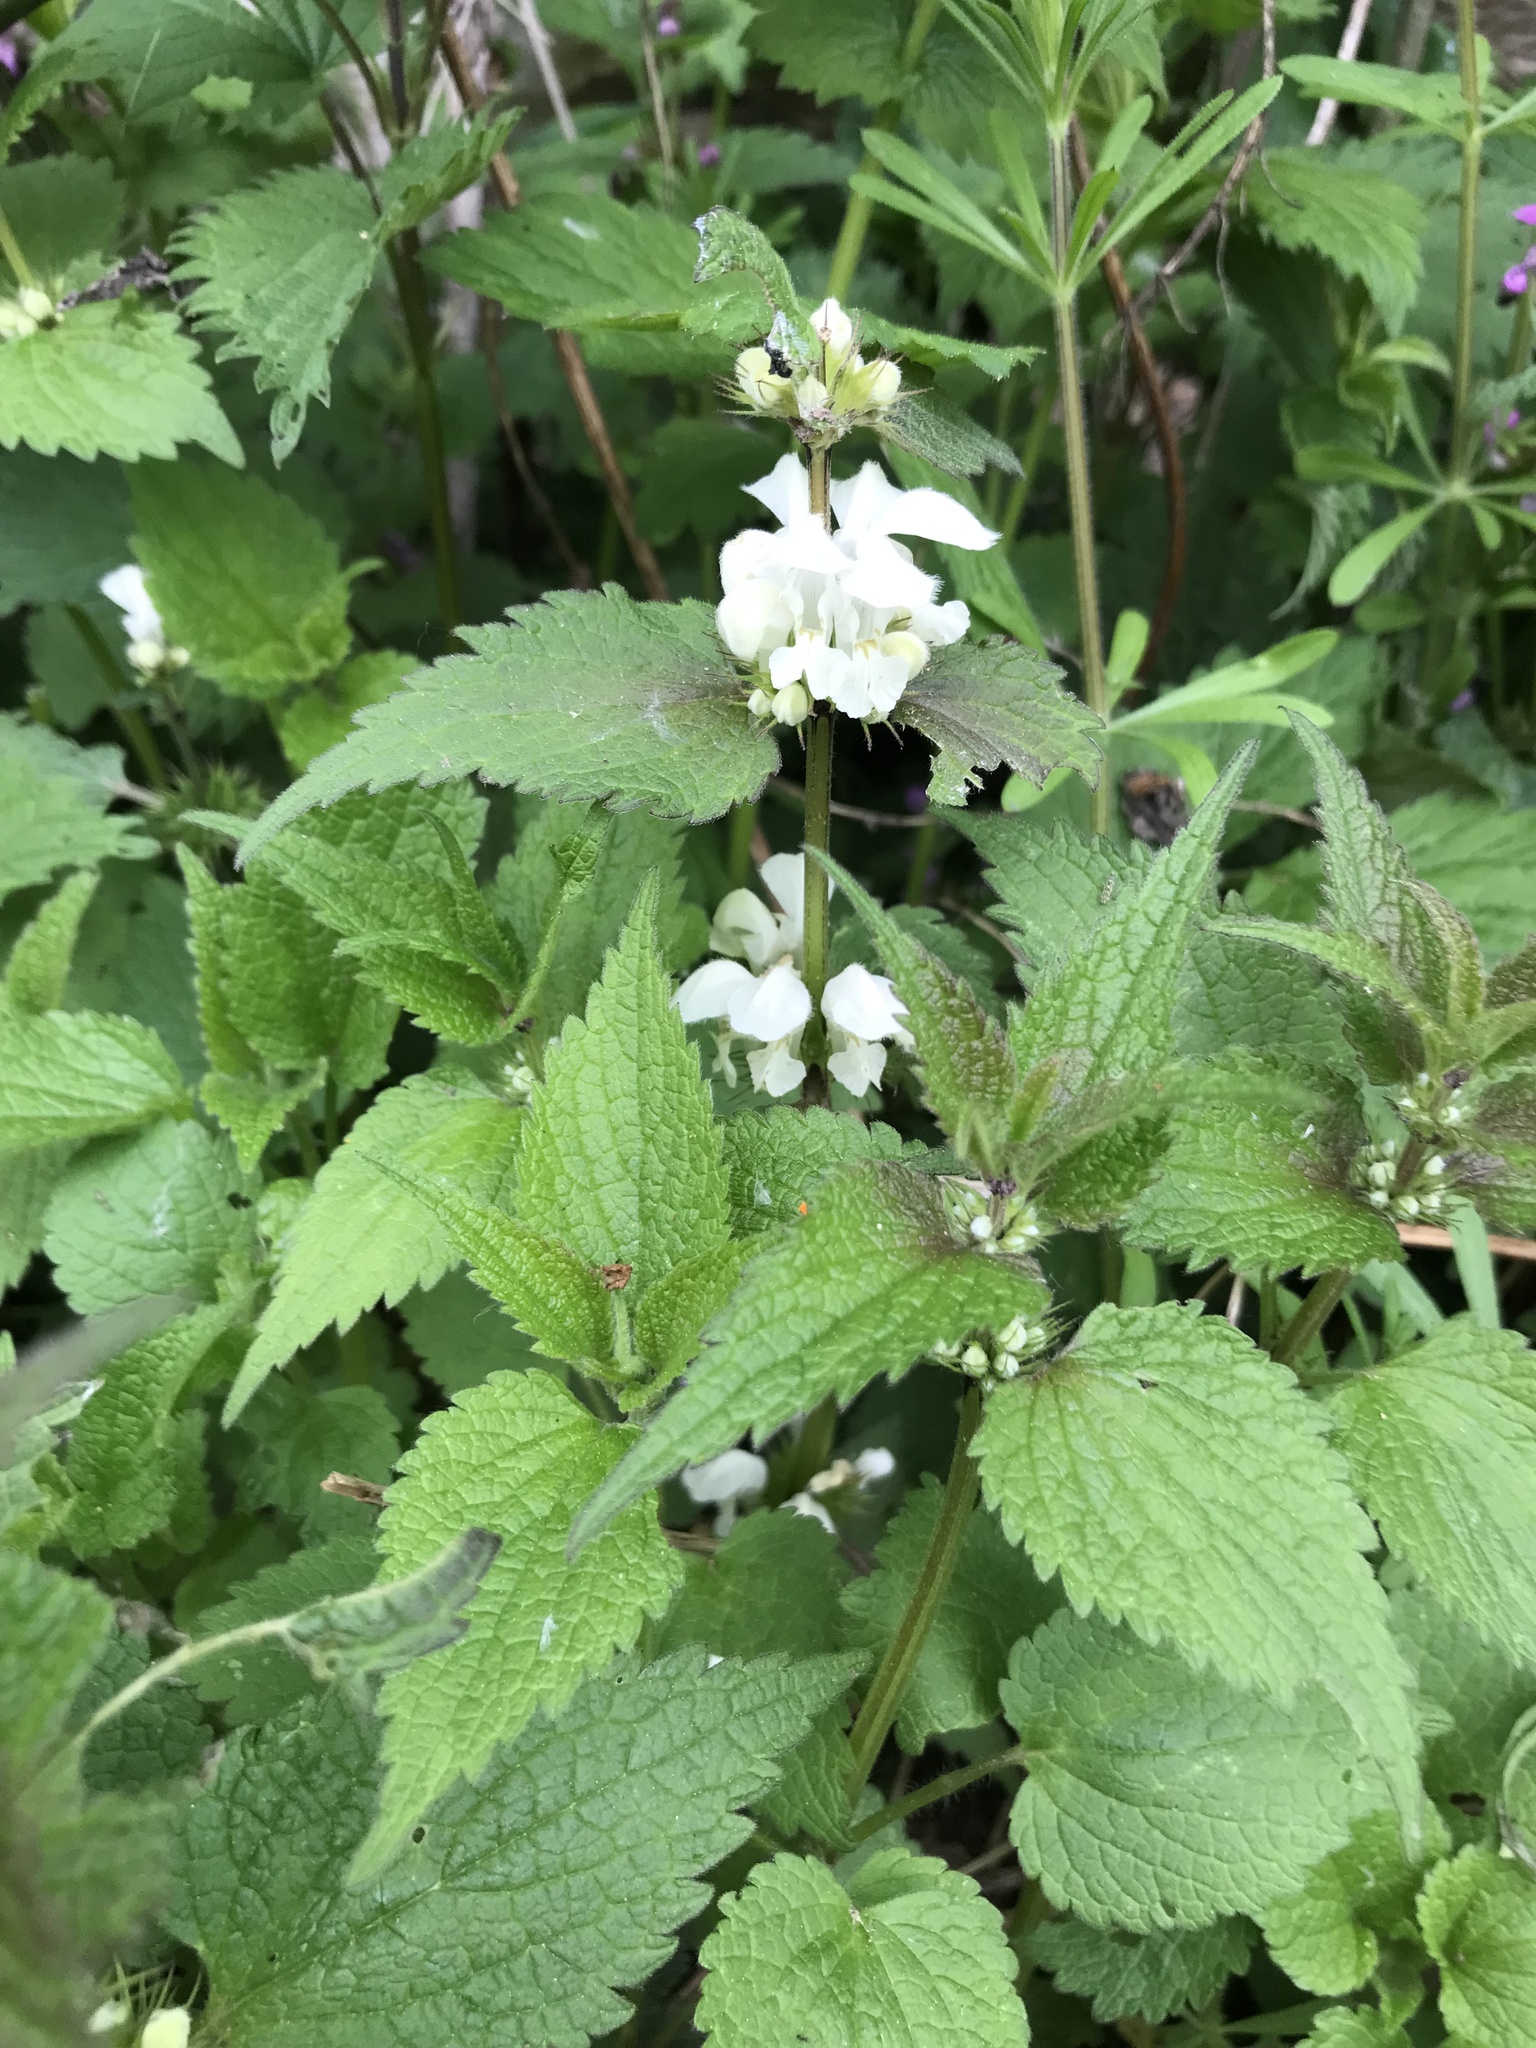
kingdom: Plantae
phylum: Tracheophyta
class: Magnoliopsida
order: Lamiales
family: Lamiaceae
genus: Lamium
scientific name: Lamium album
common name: White dead-nettle
